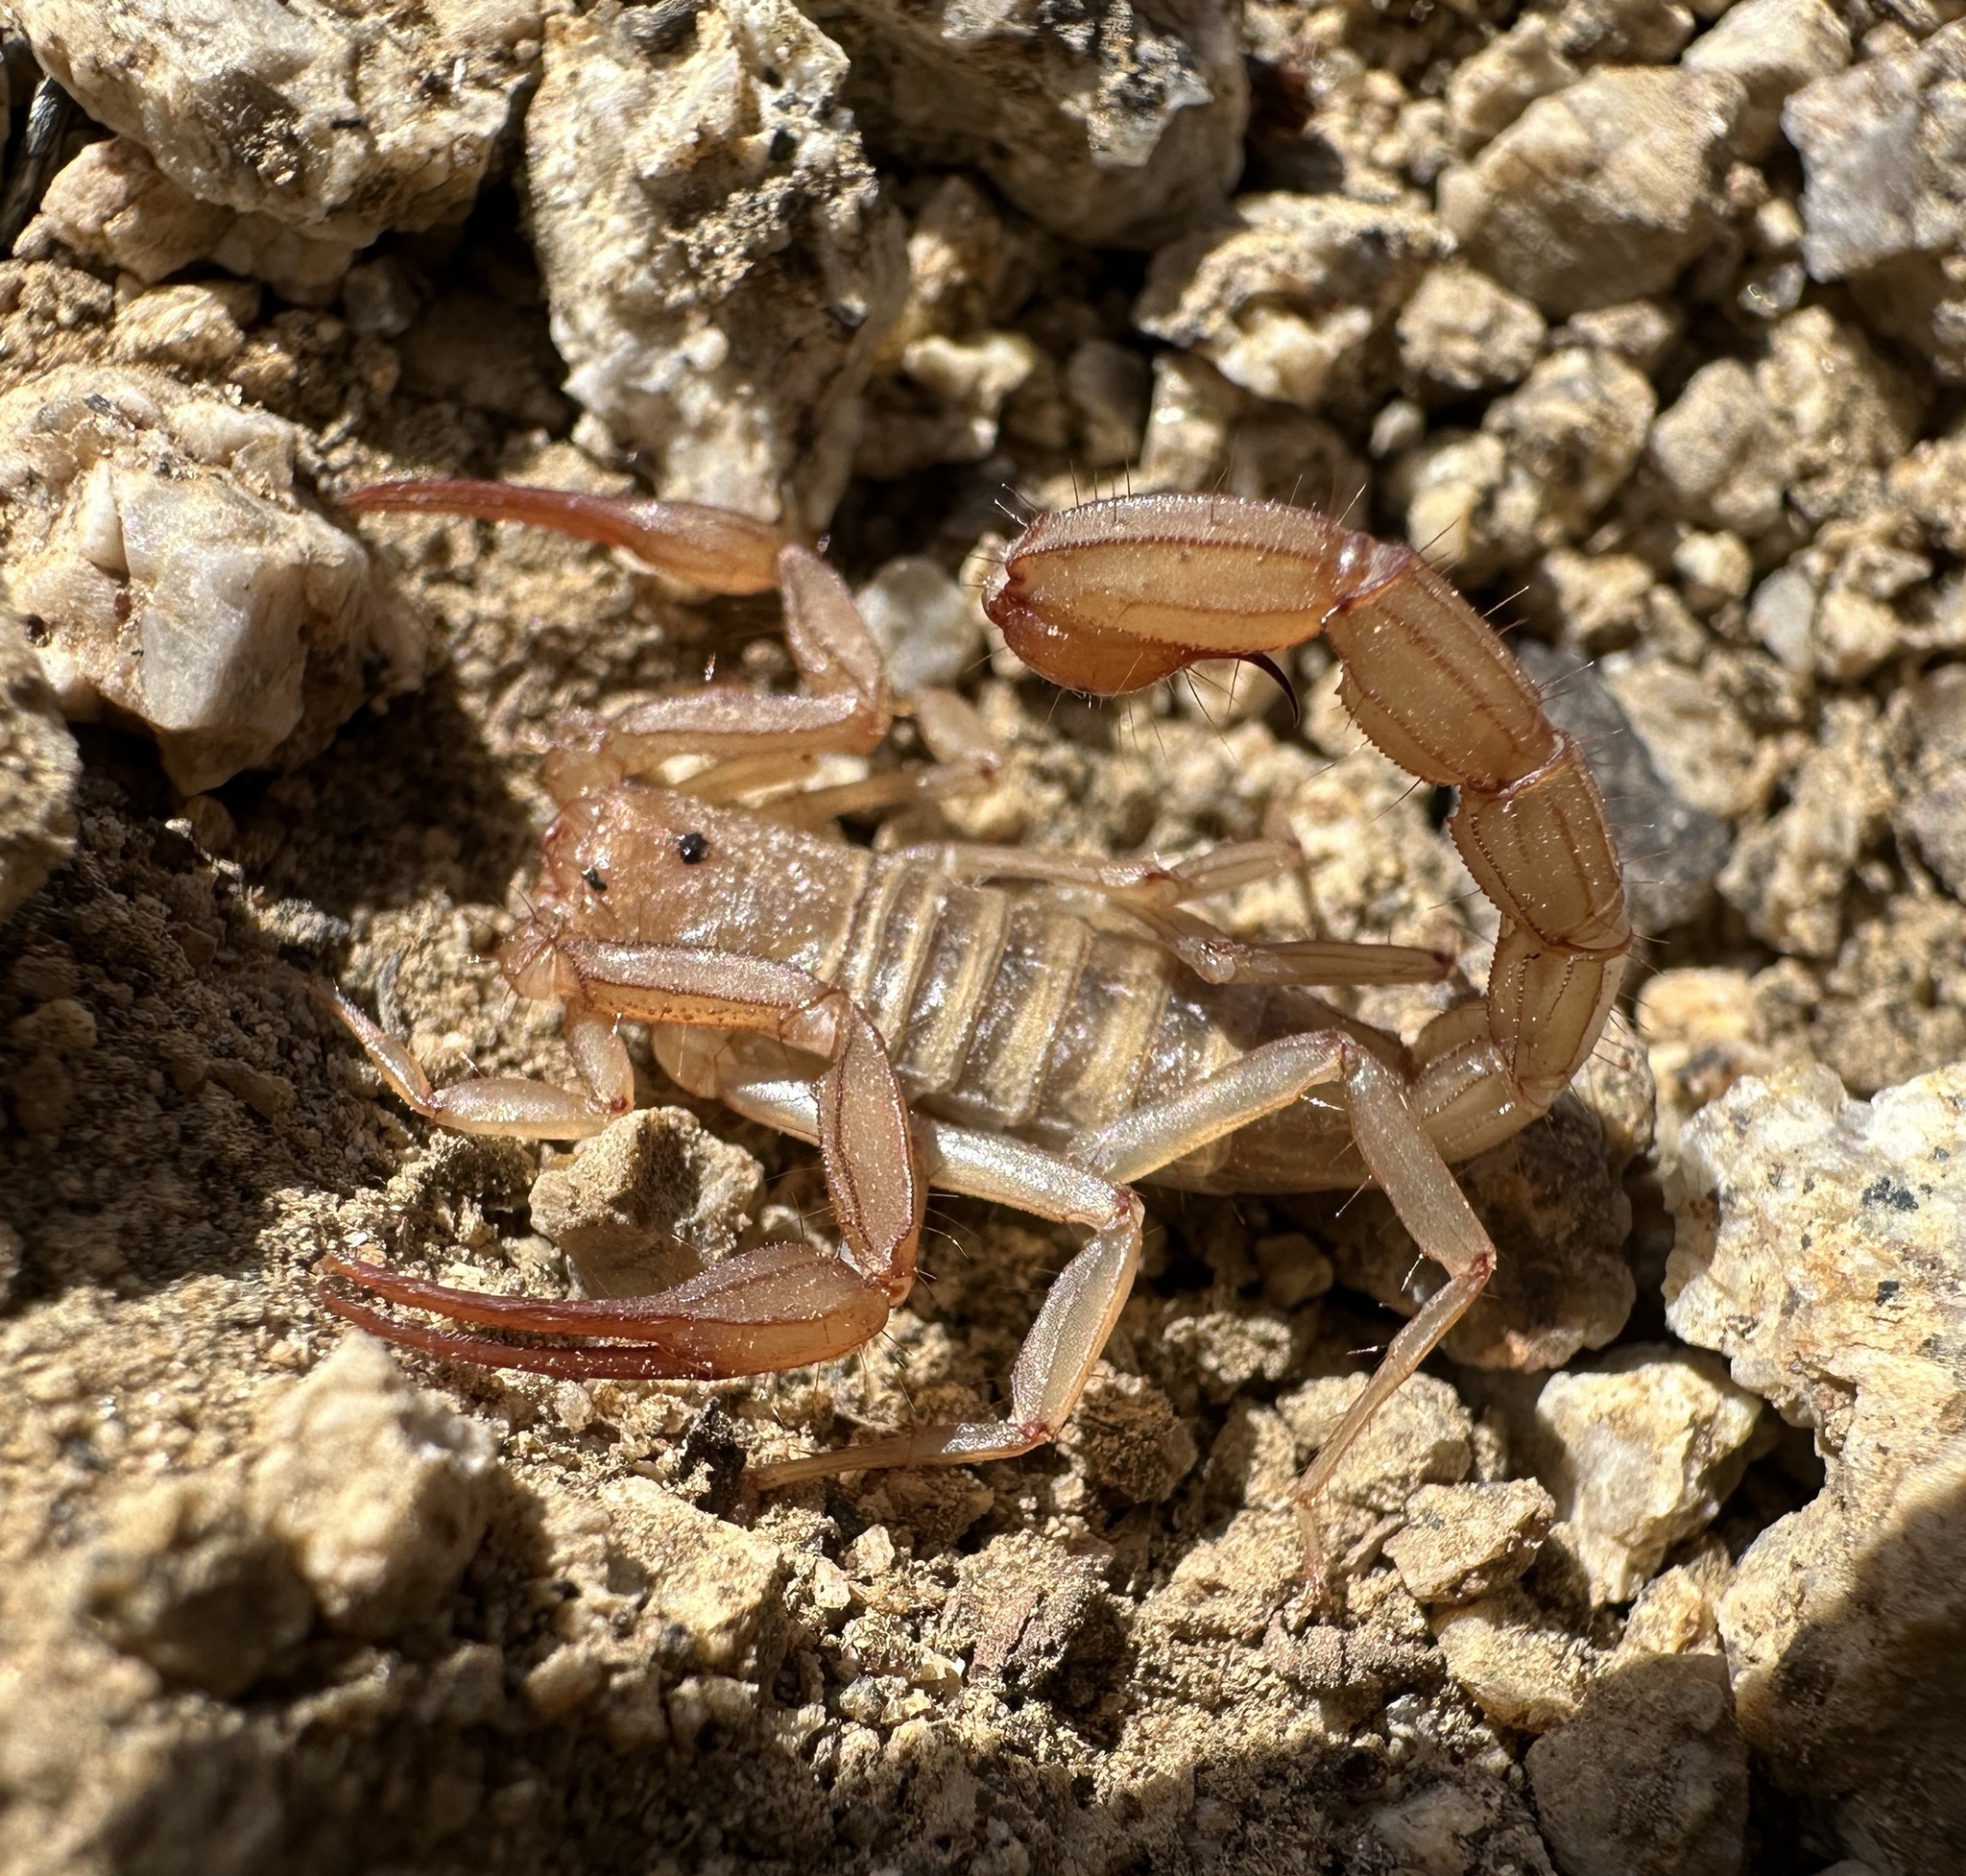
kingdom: Animalia
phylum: Arthropoda
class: Arachnida
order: Scorpiones
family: Vaejovidae
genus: Serradigitus
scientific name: Serradigitus torridus
